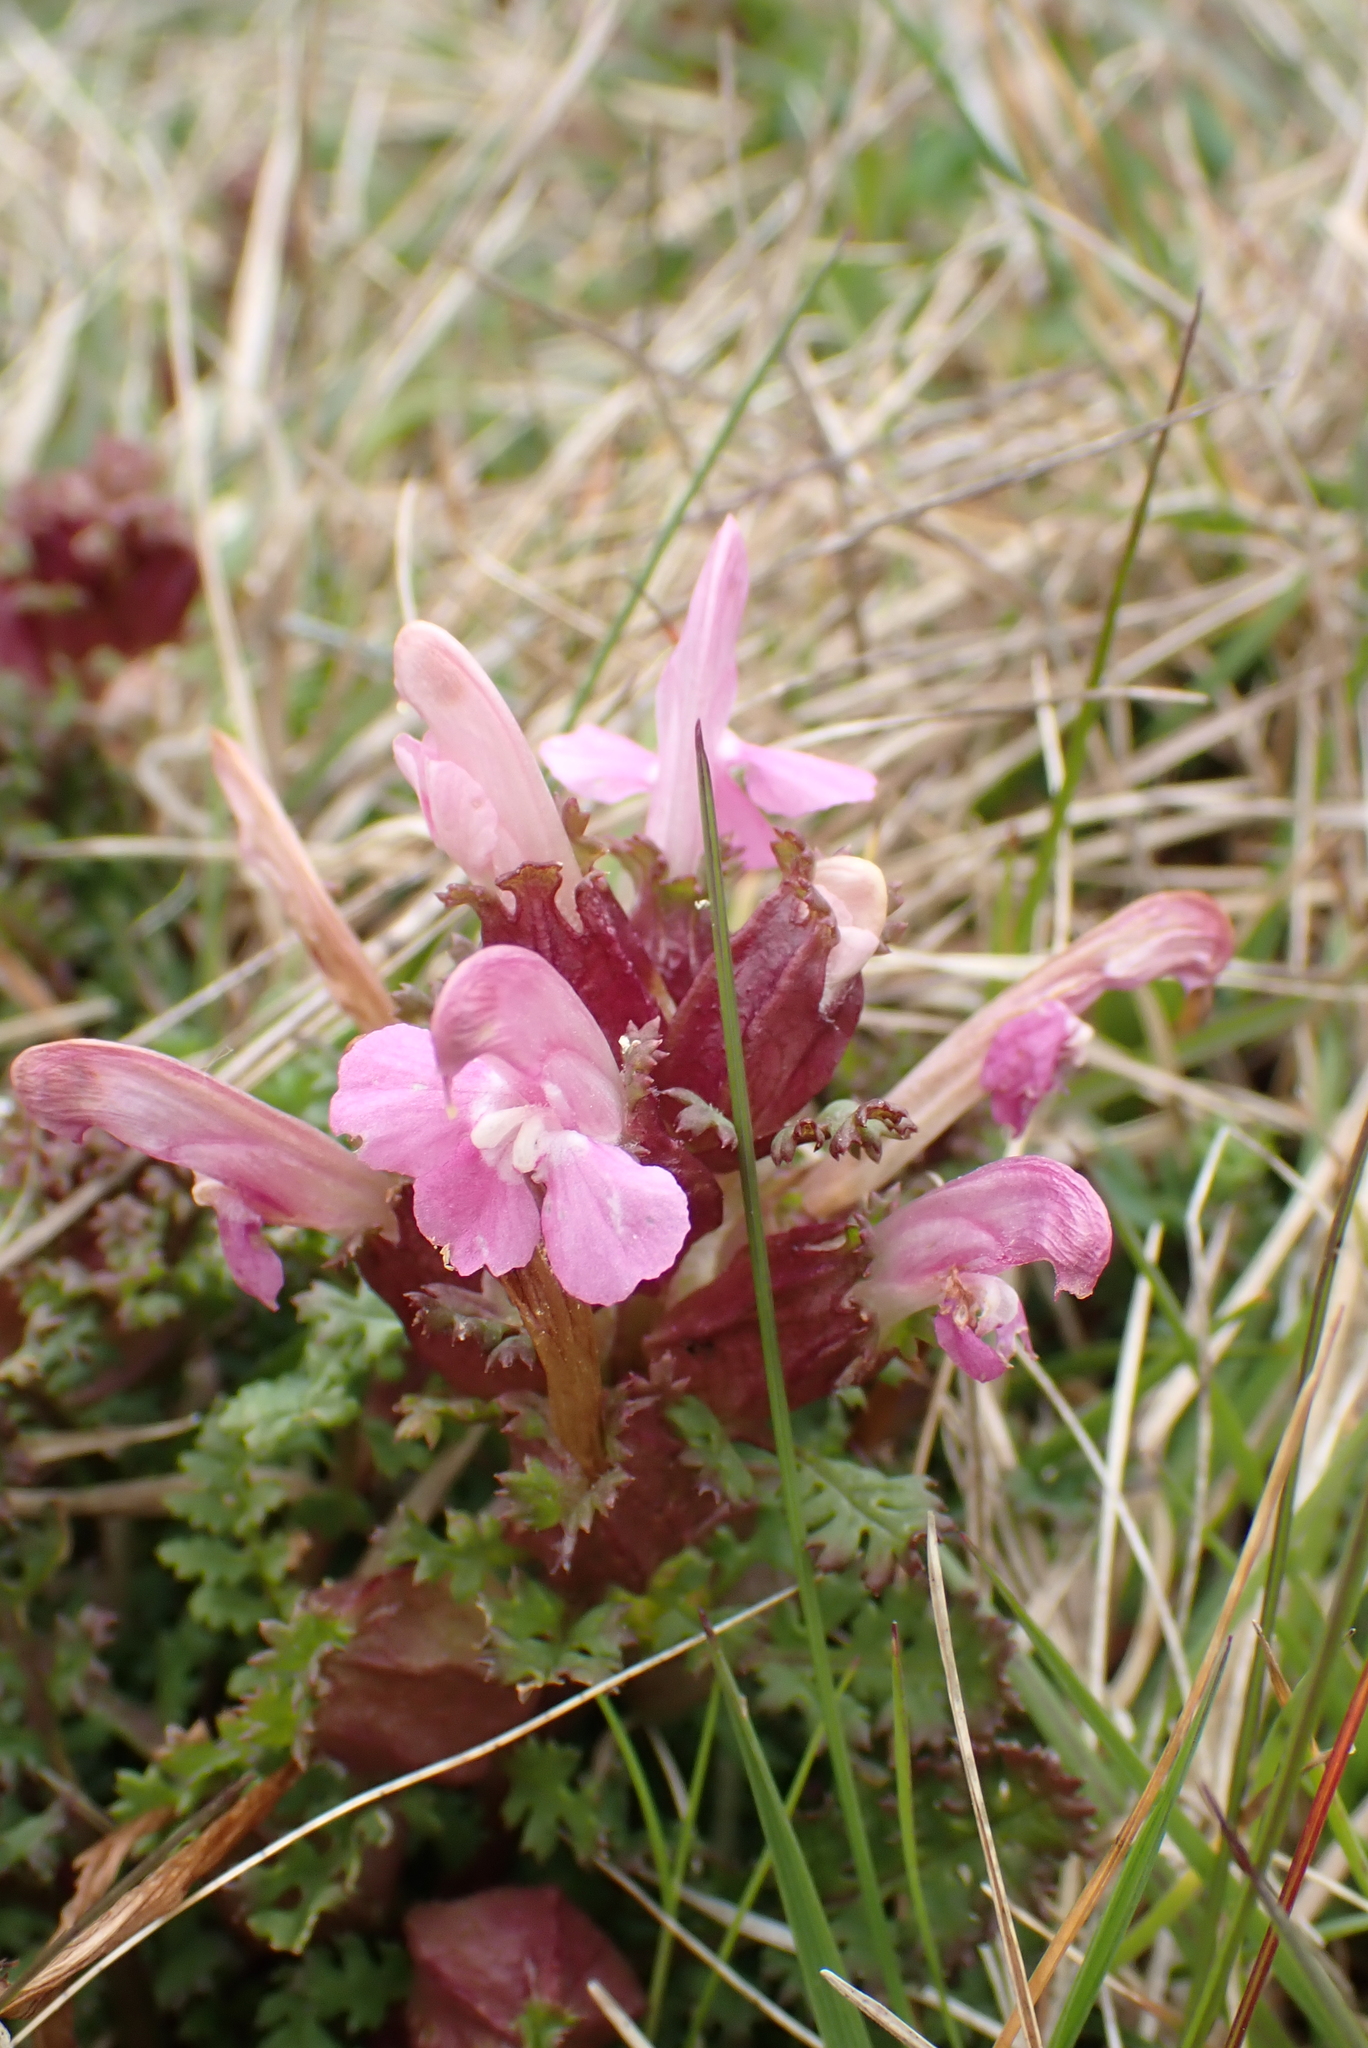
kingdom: Plantae
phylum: Tracheophyta
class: Magnoliopsida
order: Lamiales
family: Orobanchaceae
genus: Pedicularis
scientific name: Pedicularis sylvatica
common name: Lousewort
